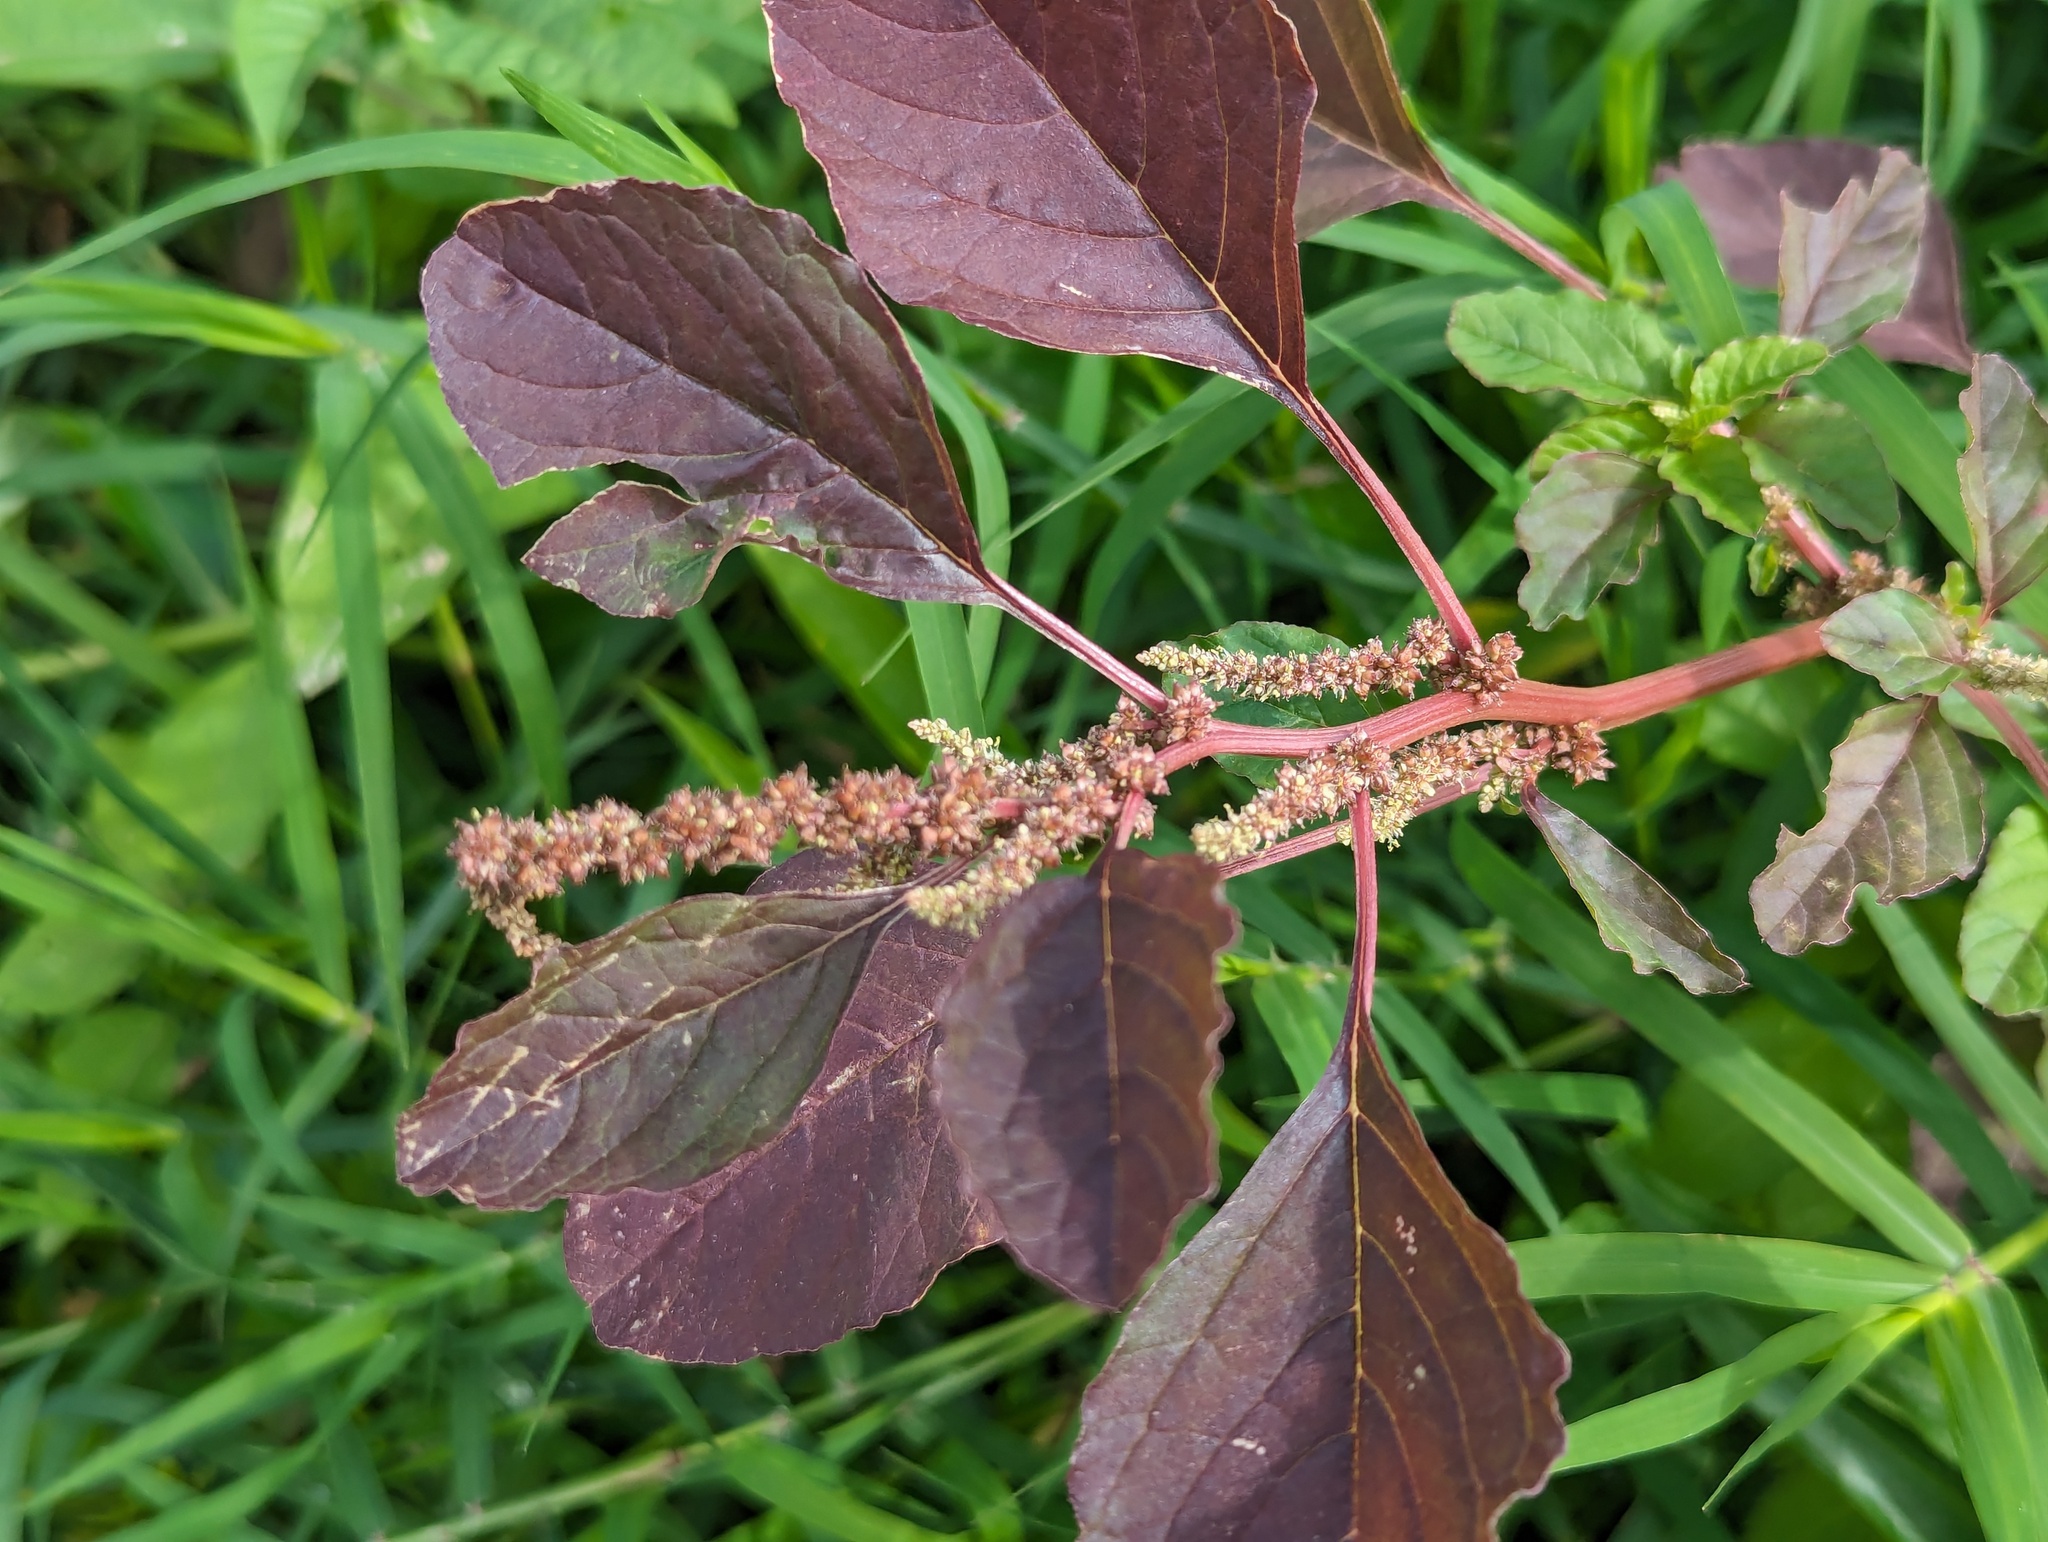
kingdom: Plantae
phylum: Tracheophyta
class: Magnoliopsida
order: Caryophyllales
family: Amaranthaceae
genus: Amaranthus
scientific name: Amaranthus blitum
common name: Purple amaranth
